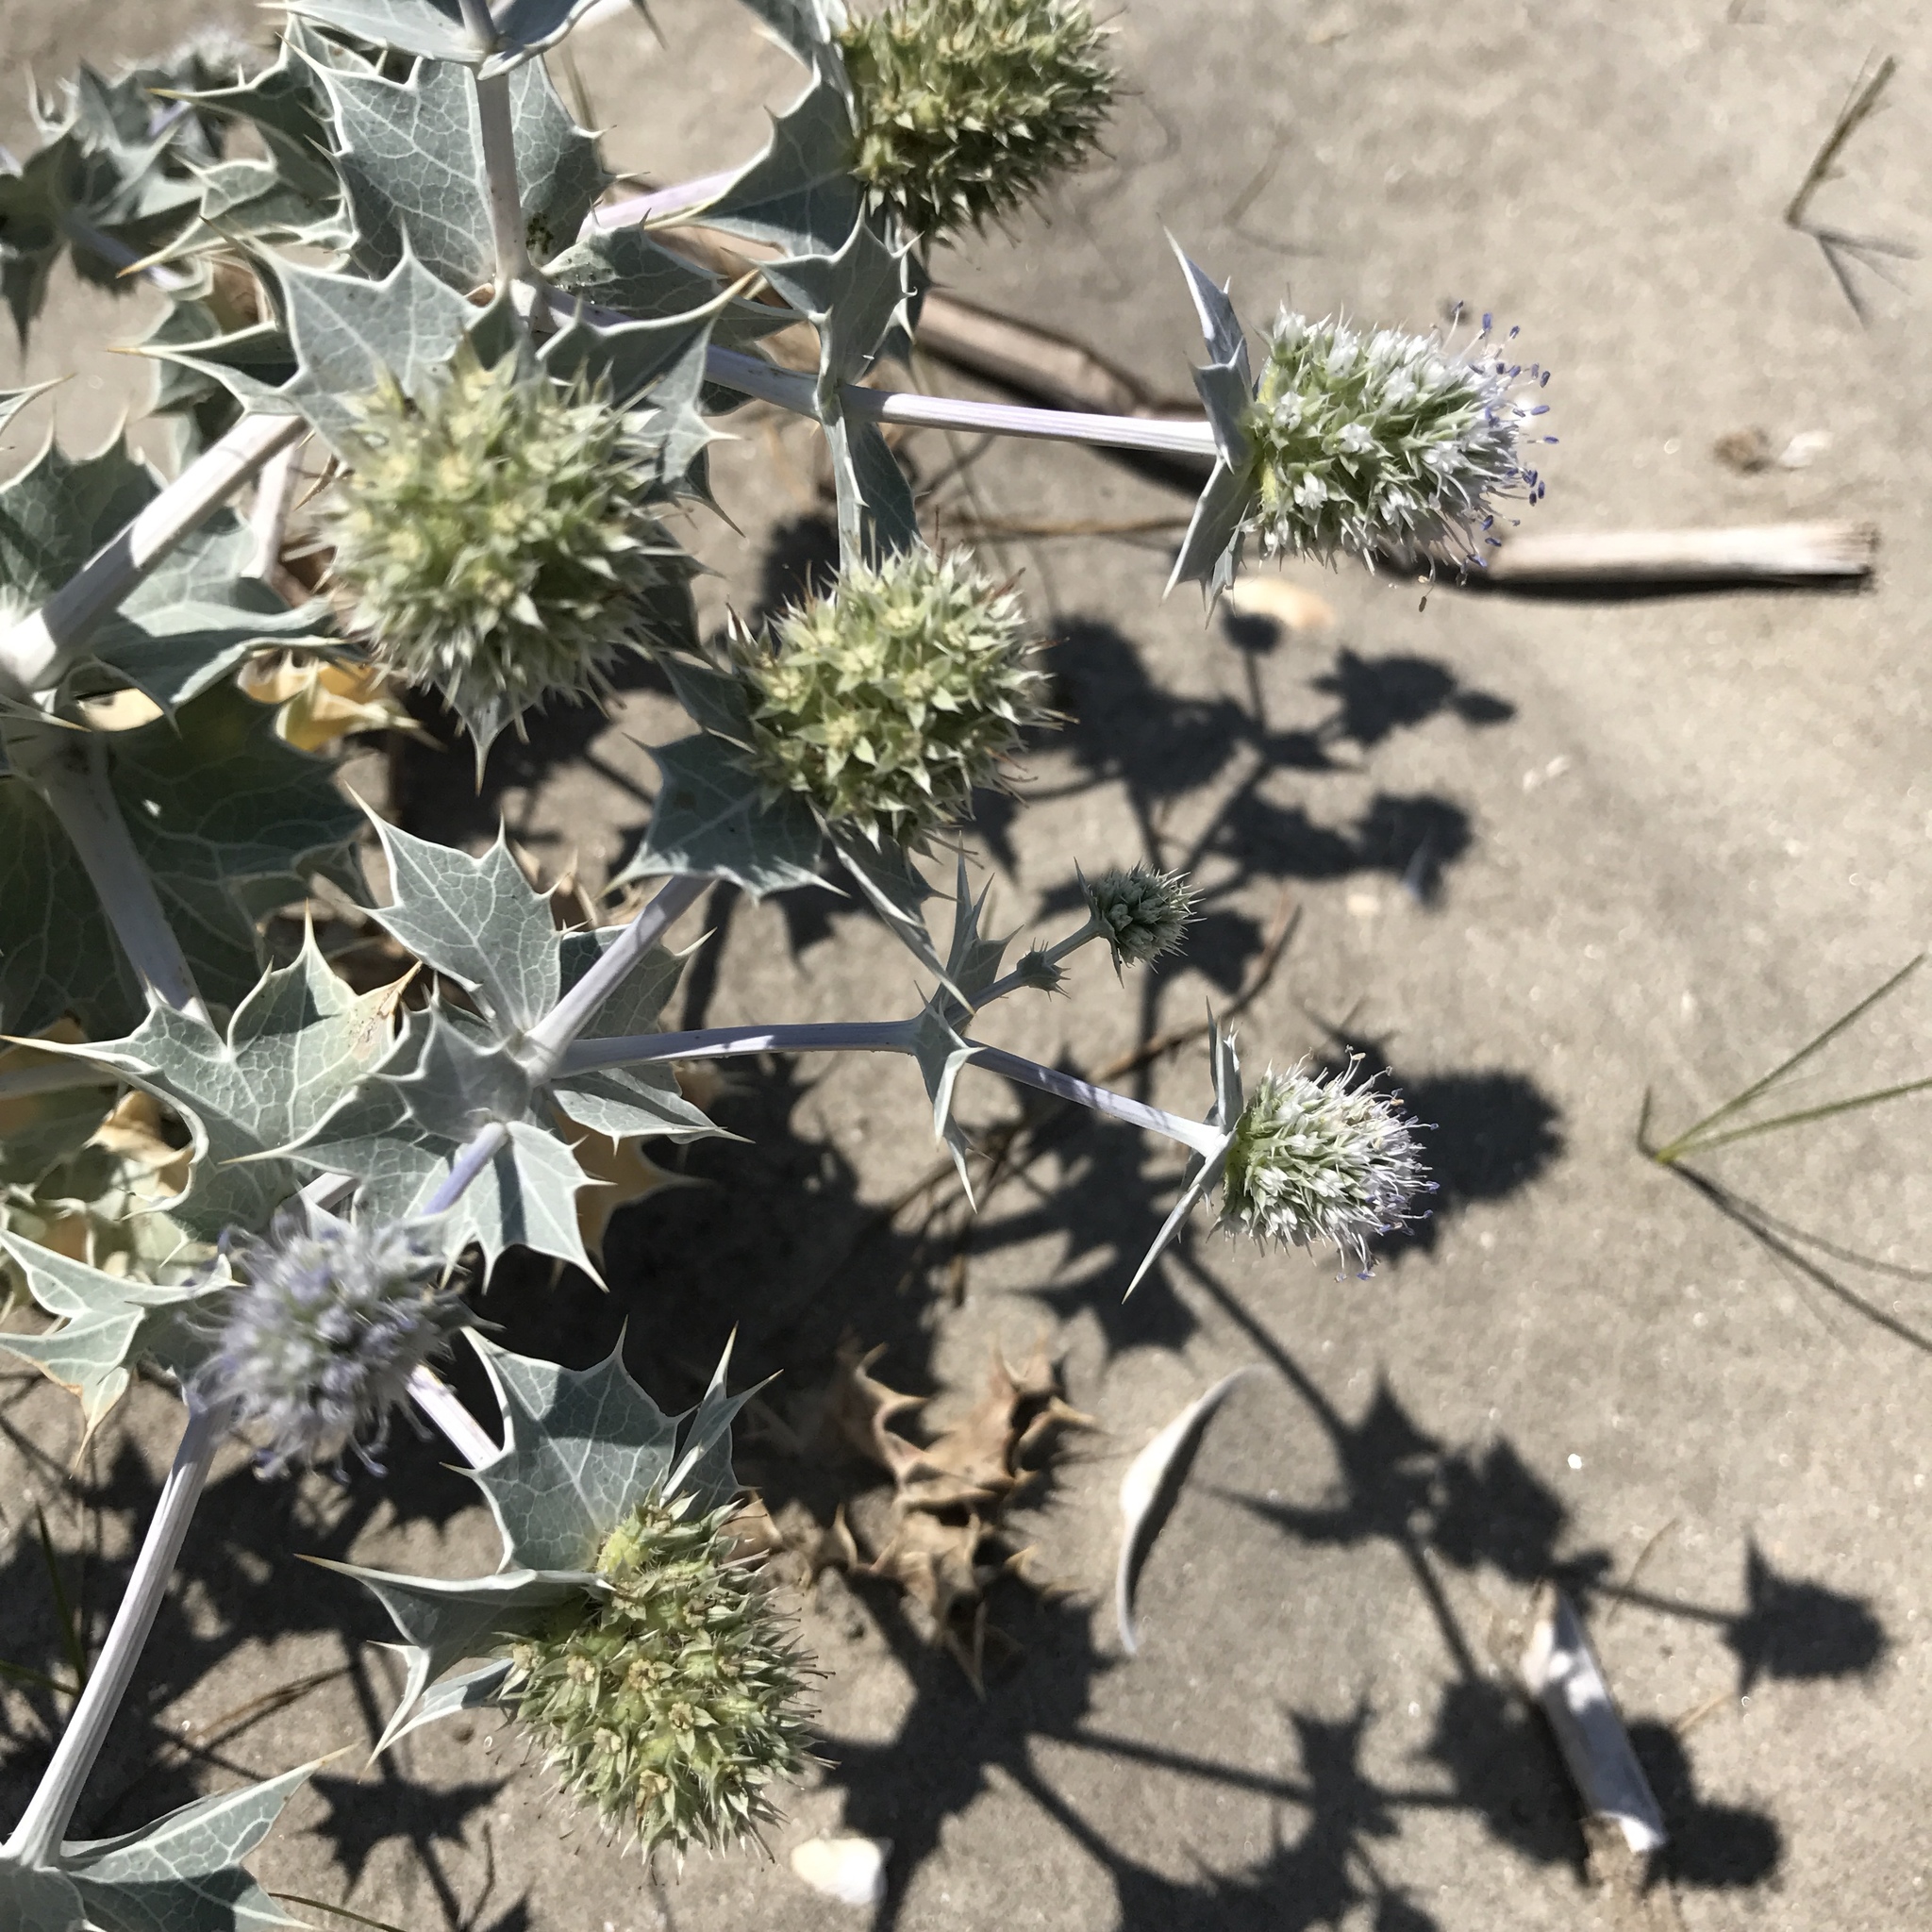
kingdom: Plantae
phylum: Tracheophyta
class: Magnoliopsida
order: Apiales
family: Apiaceae
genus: Eryngium
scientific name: Eryngium maritimum
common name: Sea-holly
